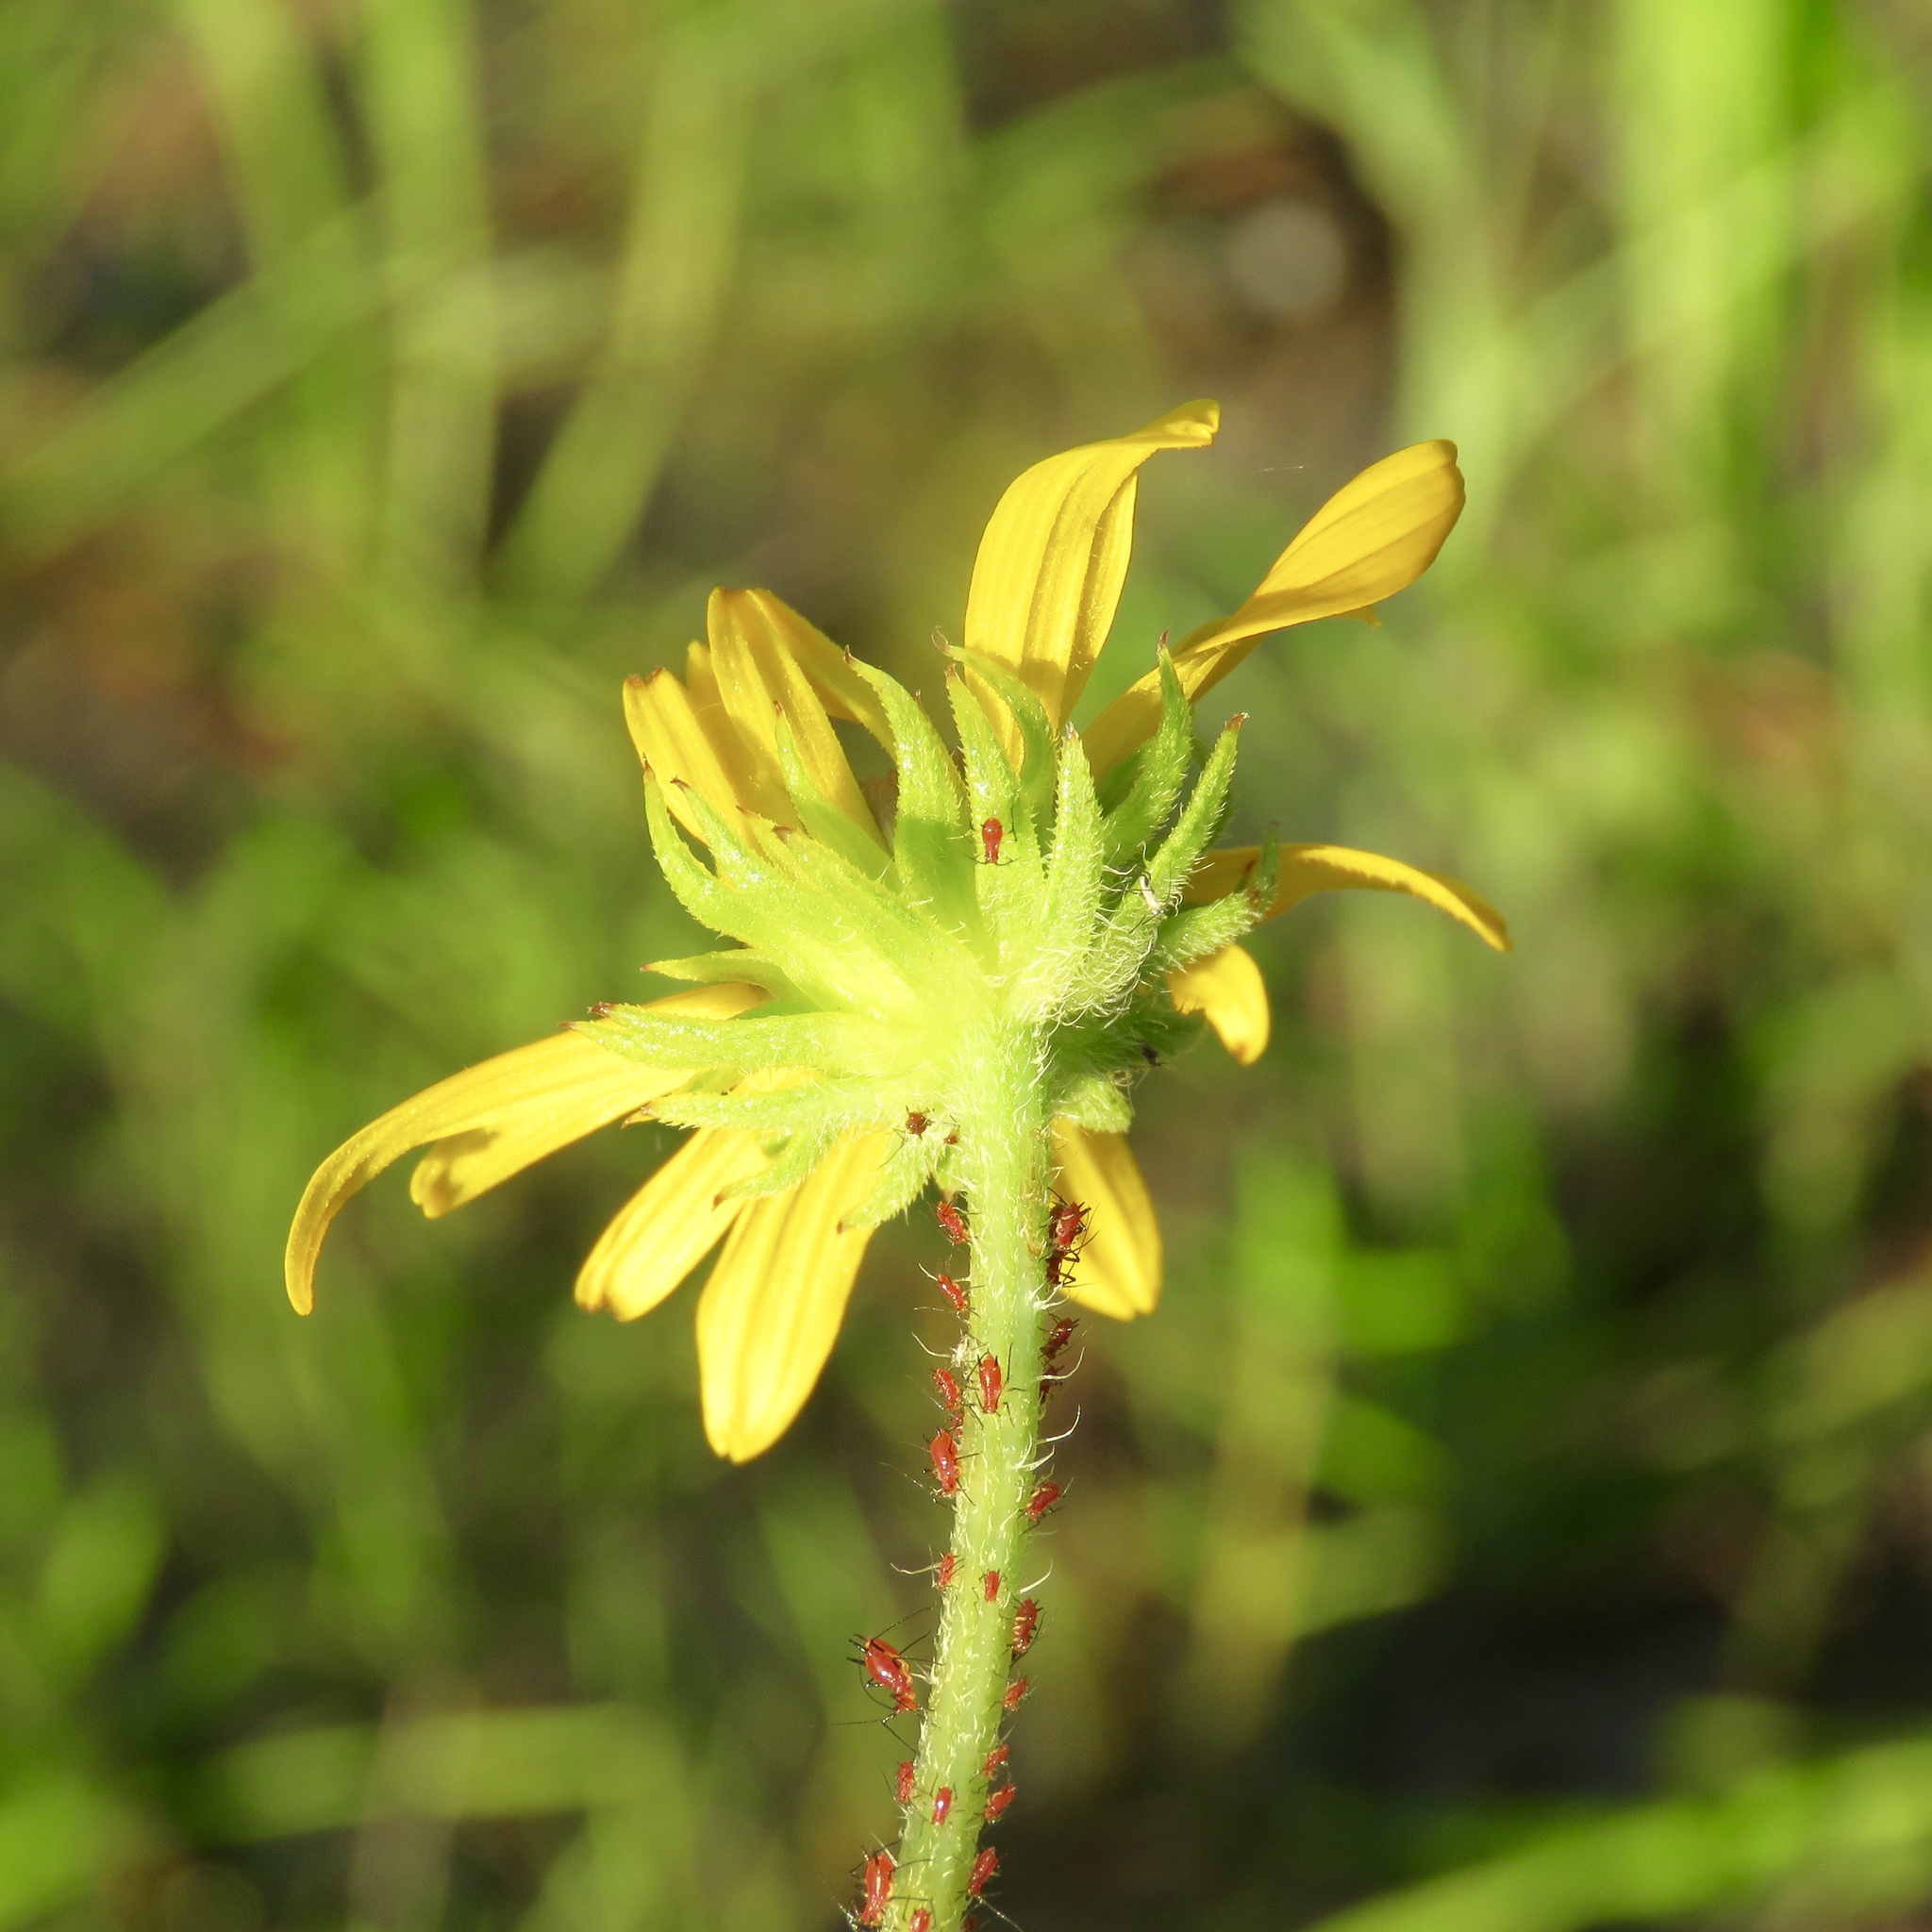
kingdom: Plantae
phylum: Tracheophyta
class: Magnoliopsida
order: Asterales
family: Asteraceae
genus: Helianthus
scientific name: Helianthus angustifolius
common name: Swamp sunflower
